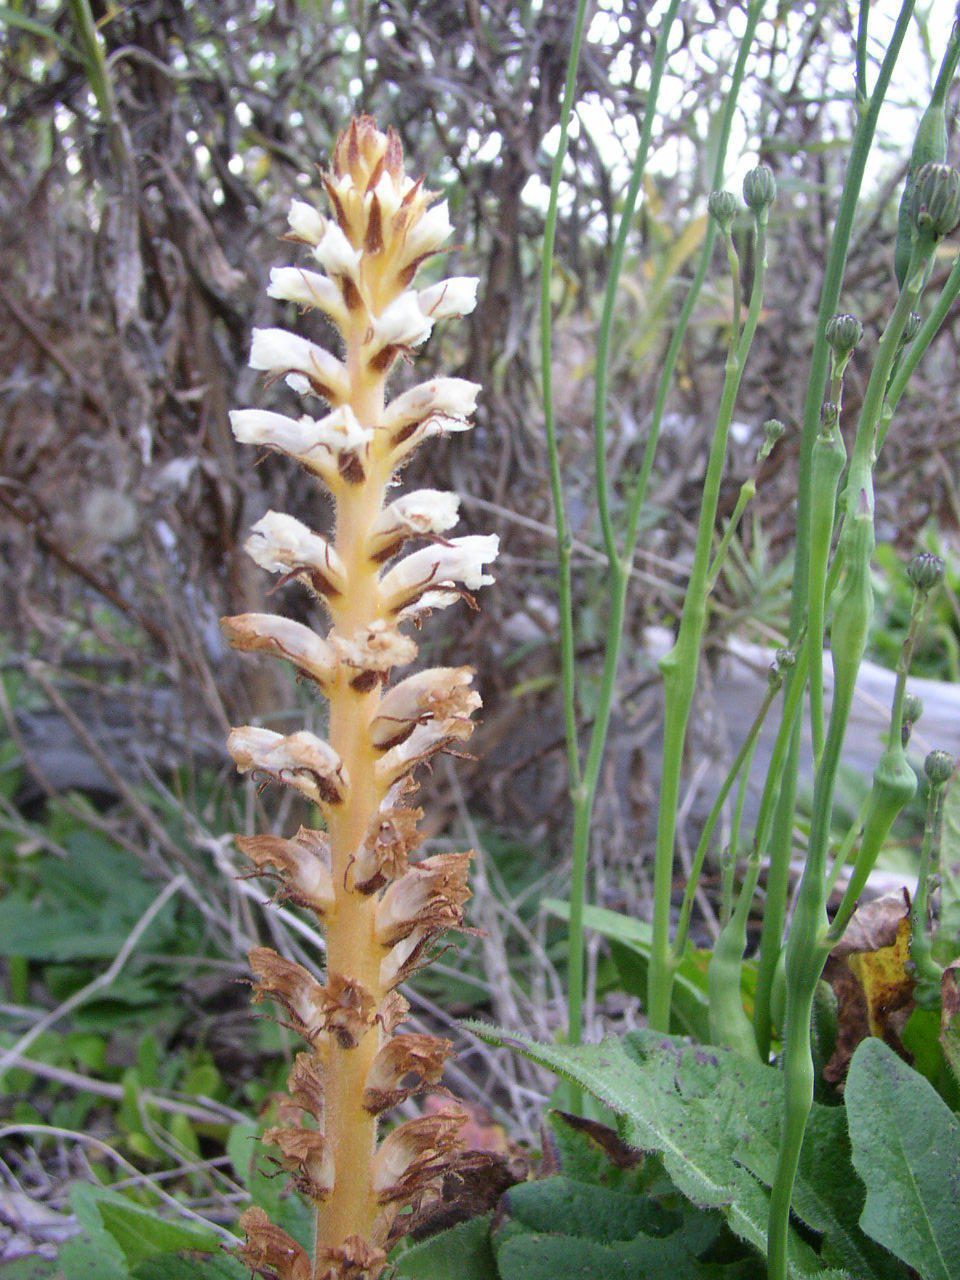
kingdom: Plantae
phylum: Tracheophyta
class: Magnoliopsida
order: Lamiales
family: Orobanchaceae
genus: Orobanche
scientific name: Orobanche minor
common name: Common broomrape
